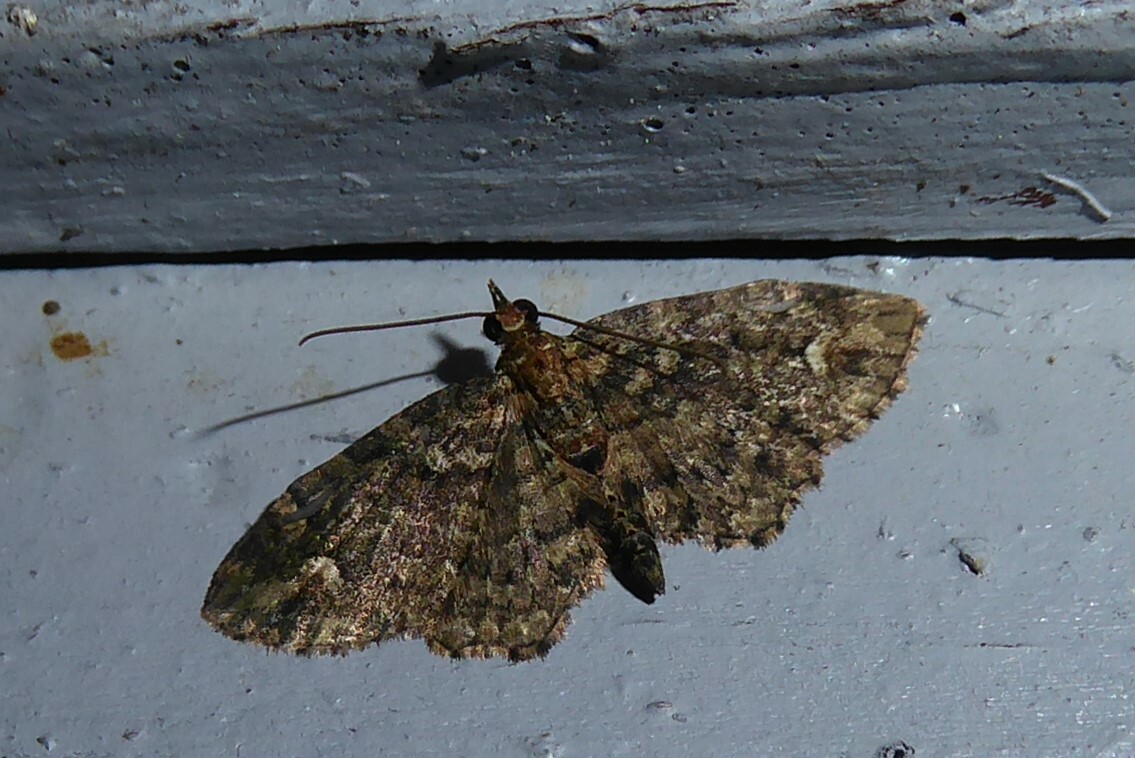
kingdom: Animalia
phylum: Arthropoda
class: Insecta
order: Lepidoptera
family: Geometridae
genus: Pasiphilodes
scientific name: Pasiphilodes testulata
